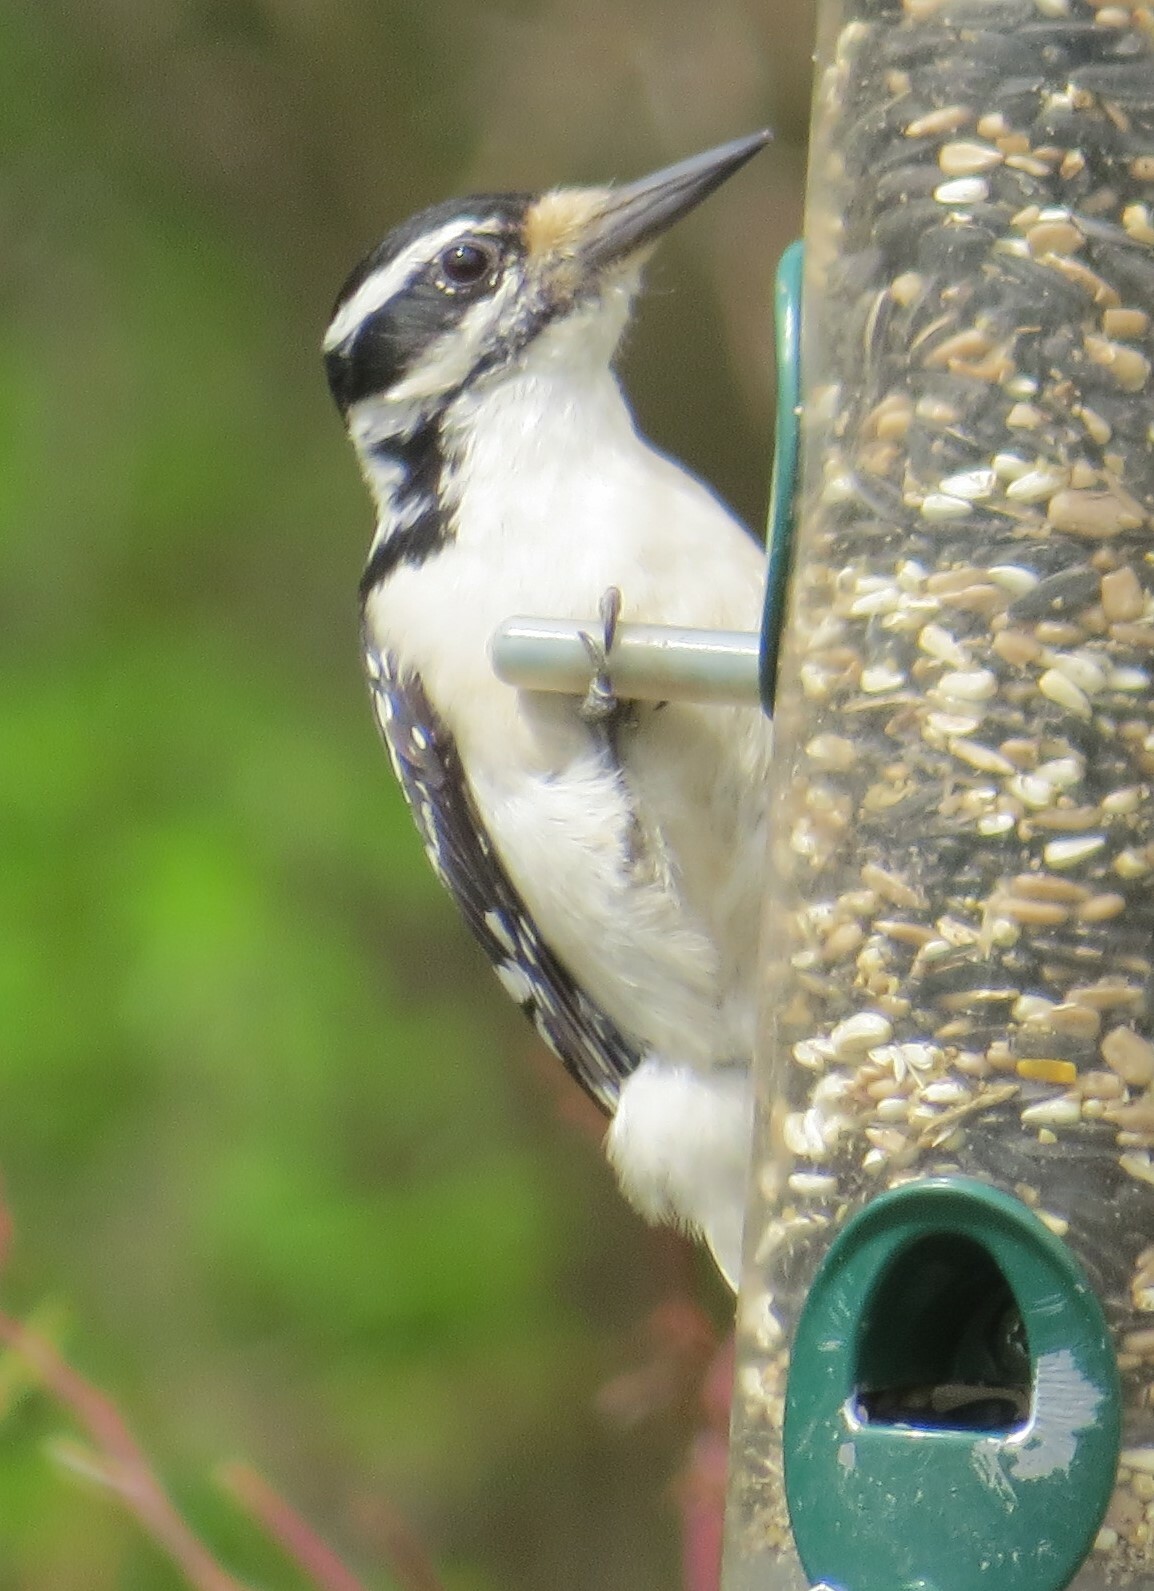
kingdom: Animalia
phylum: Chordata
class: Aves
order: Piciformes
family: Picidae
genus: Leuconotopicus
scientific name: Leuconotopicus villosus
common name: Hairy woodpecker
